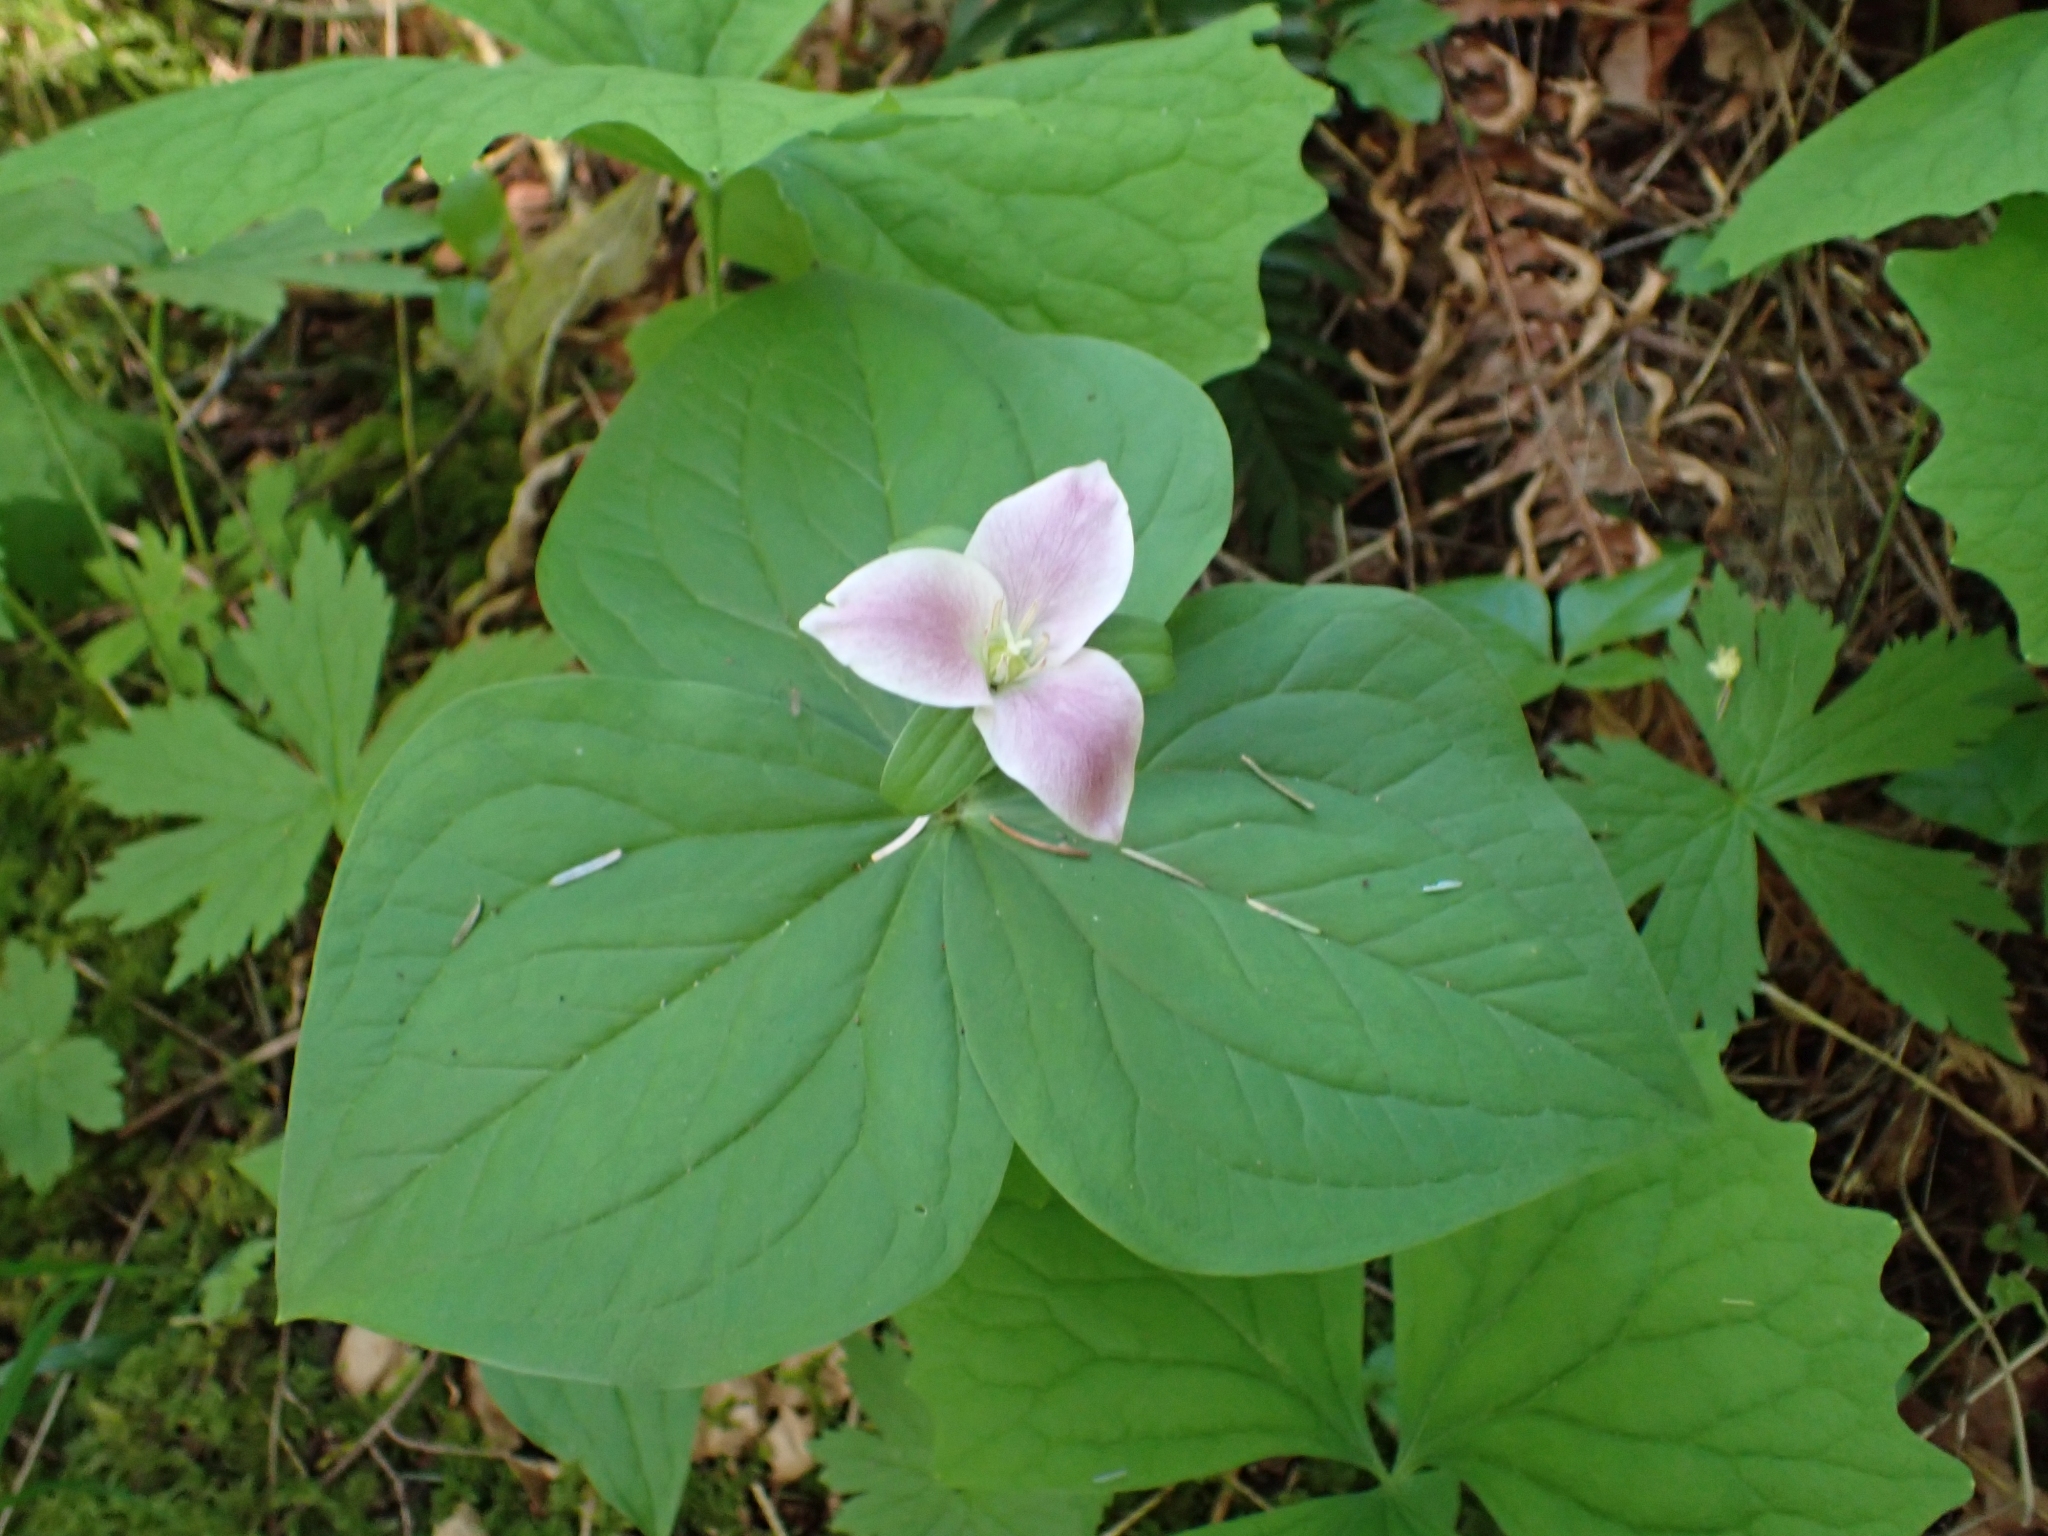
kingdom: Plantae
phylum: Tracheophyta
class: Liliopsida
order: Liliales
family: Melanthiaceae
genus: Trillium
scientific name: Trillium ovatum
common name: Pacific trillium
